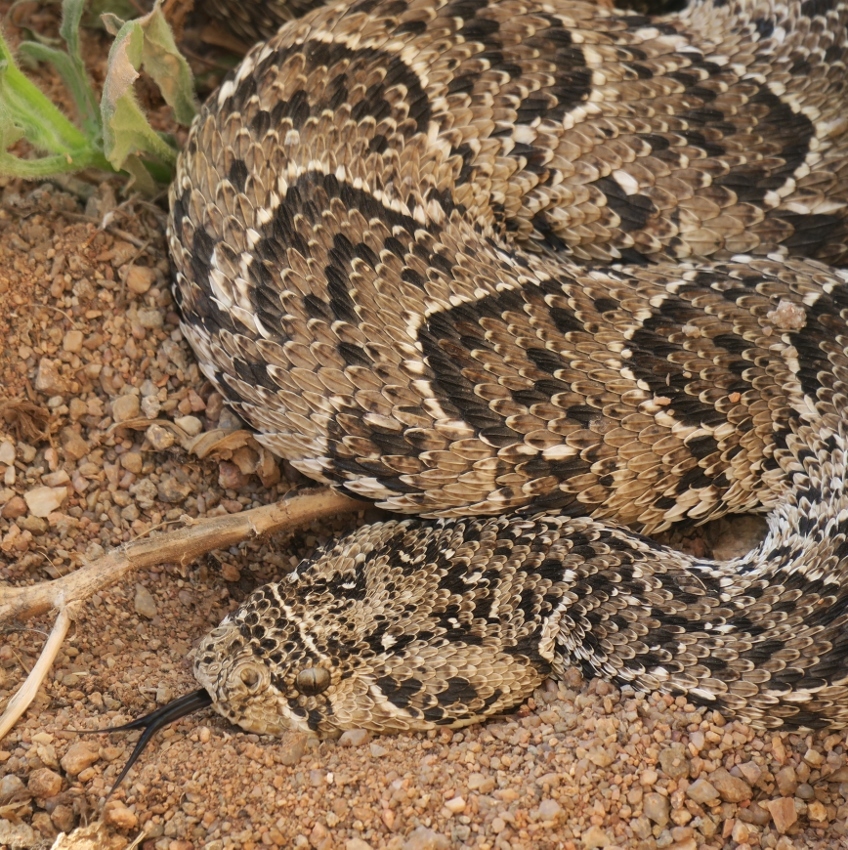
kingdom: Animalia
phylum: Chordata
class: Squamata
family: Viperidae
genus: Bitis
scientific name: Bitis arietans
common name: Puff adder
